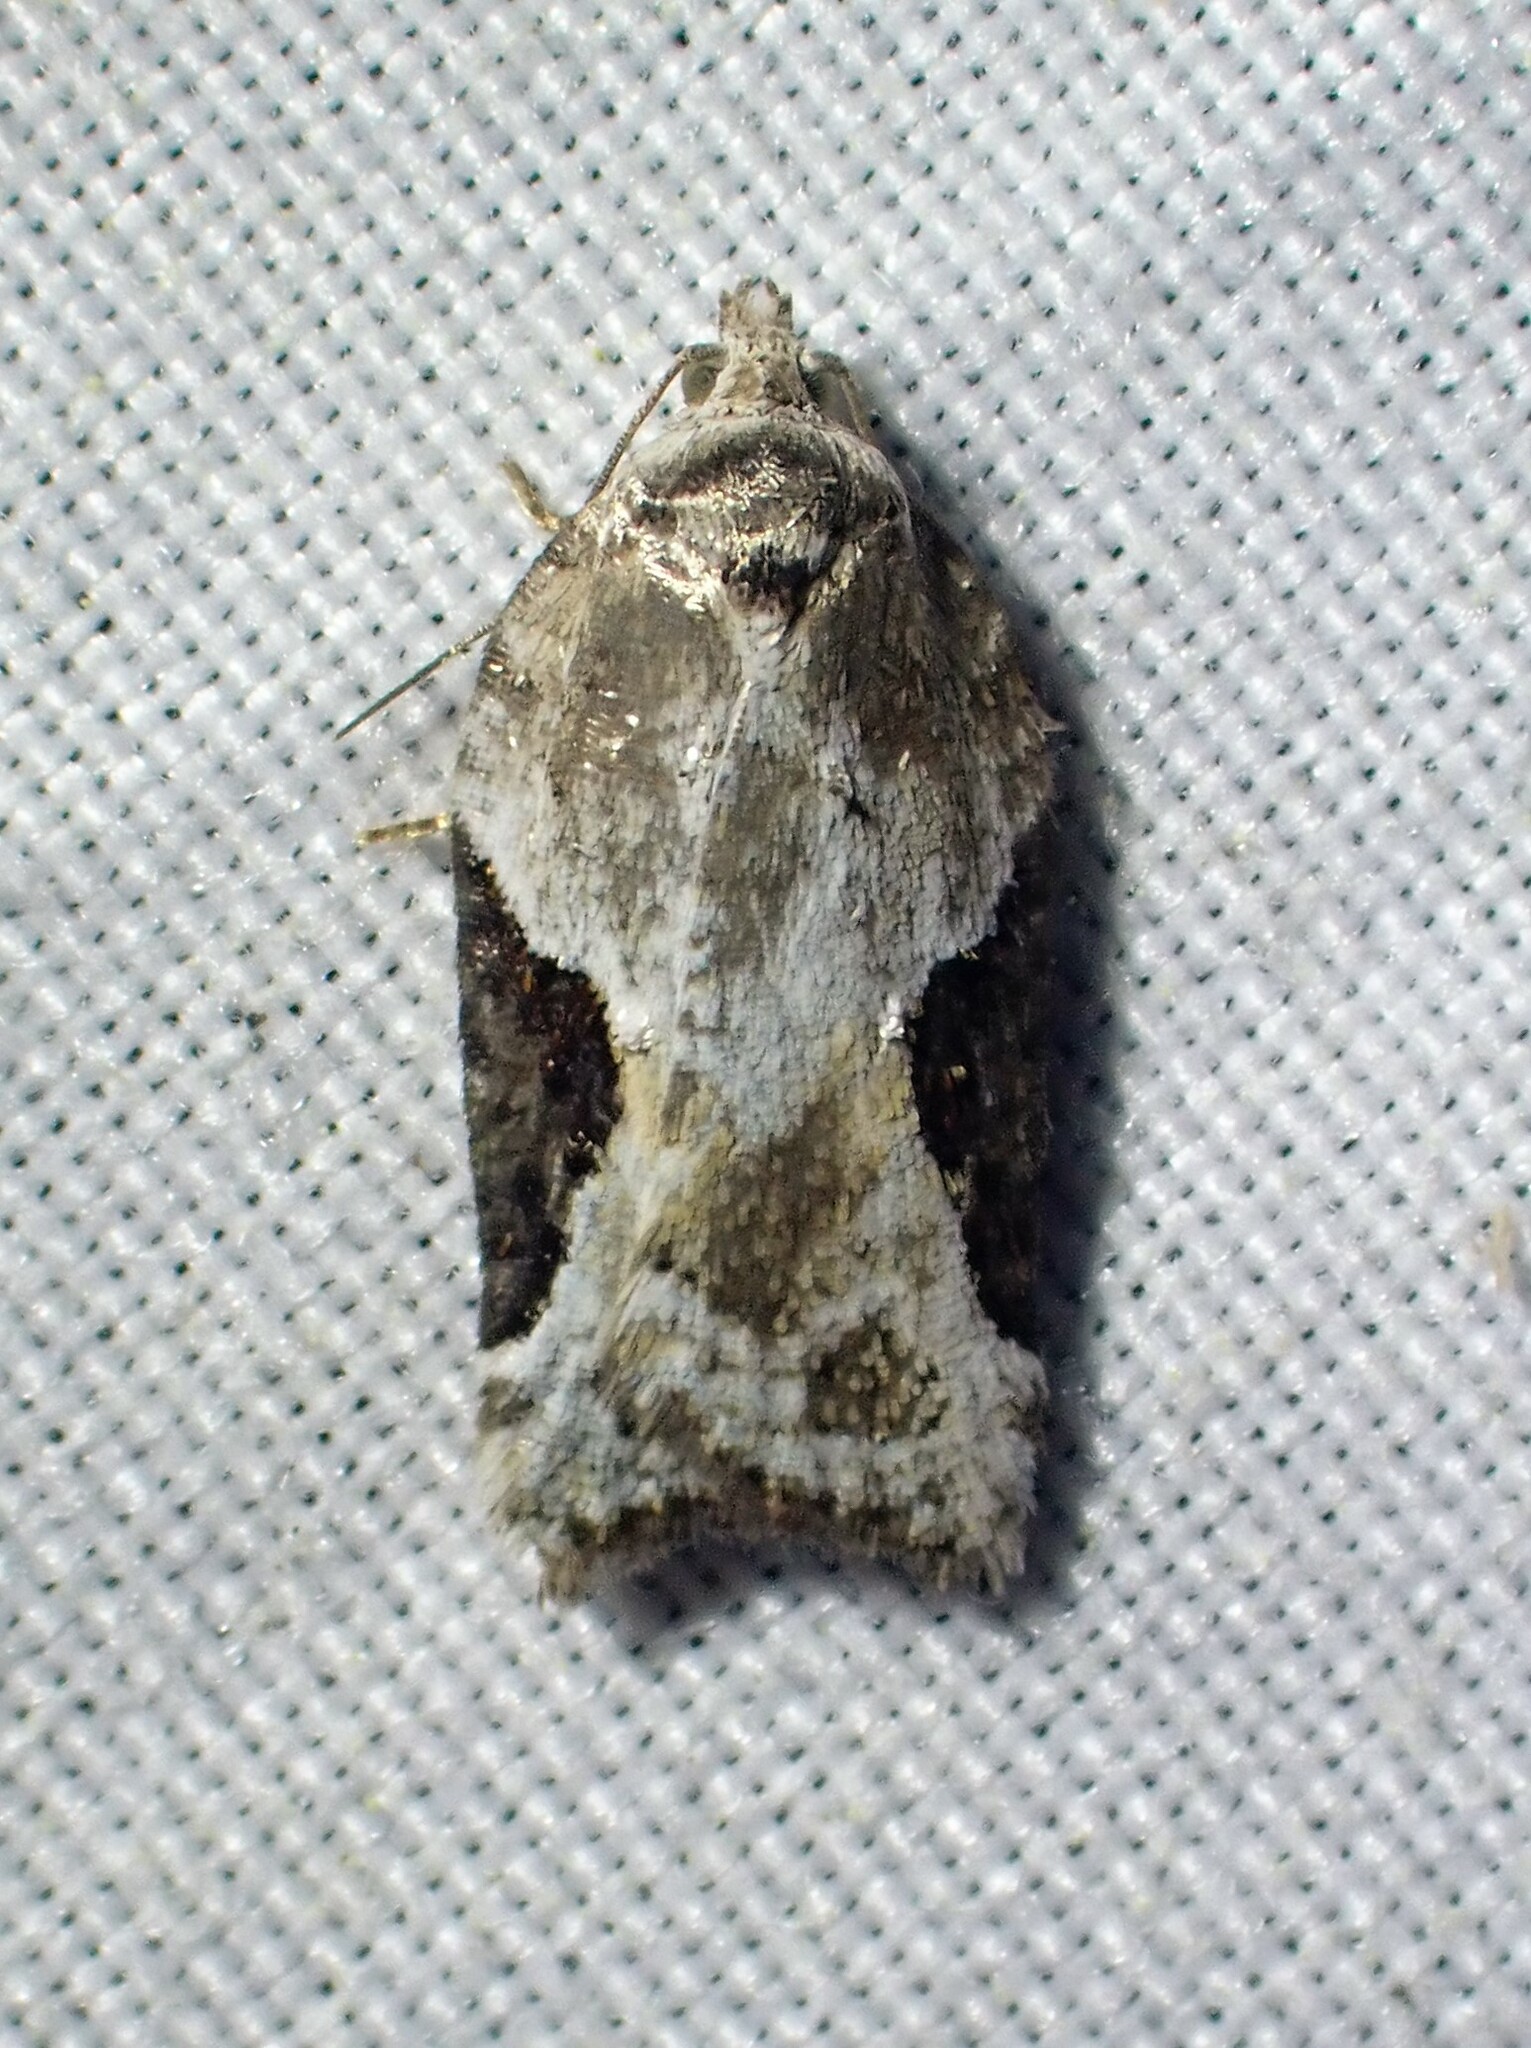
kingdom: Animalia
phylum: Arthropoda
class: Insecta
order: Lepidoptera
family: Tortricidae
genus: Acleris
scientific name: Acleris forbesana
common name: Forbes' acleris moth
